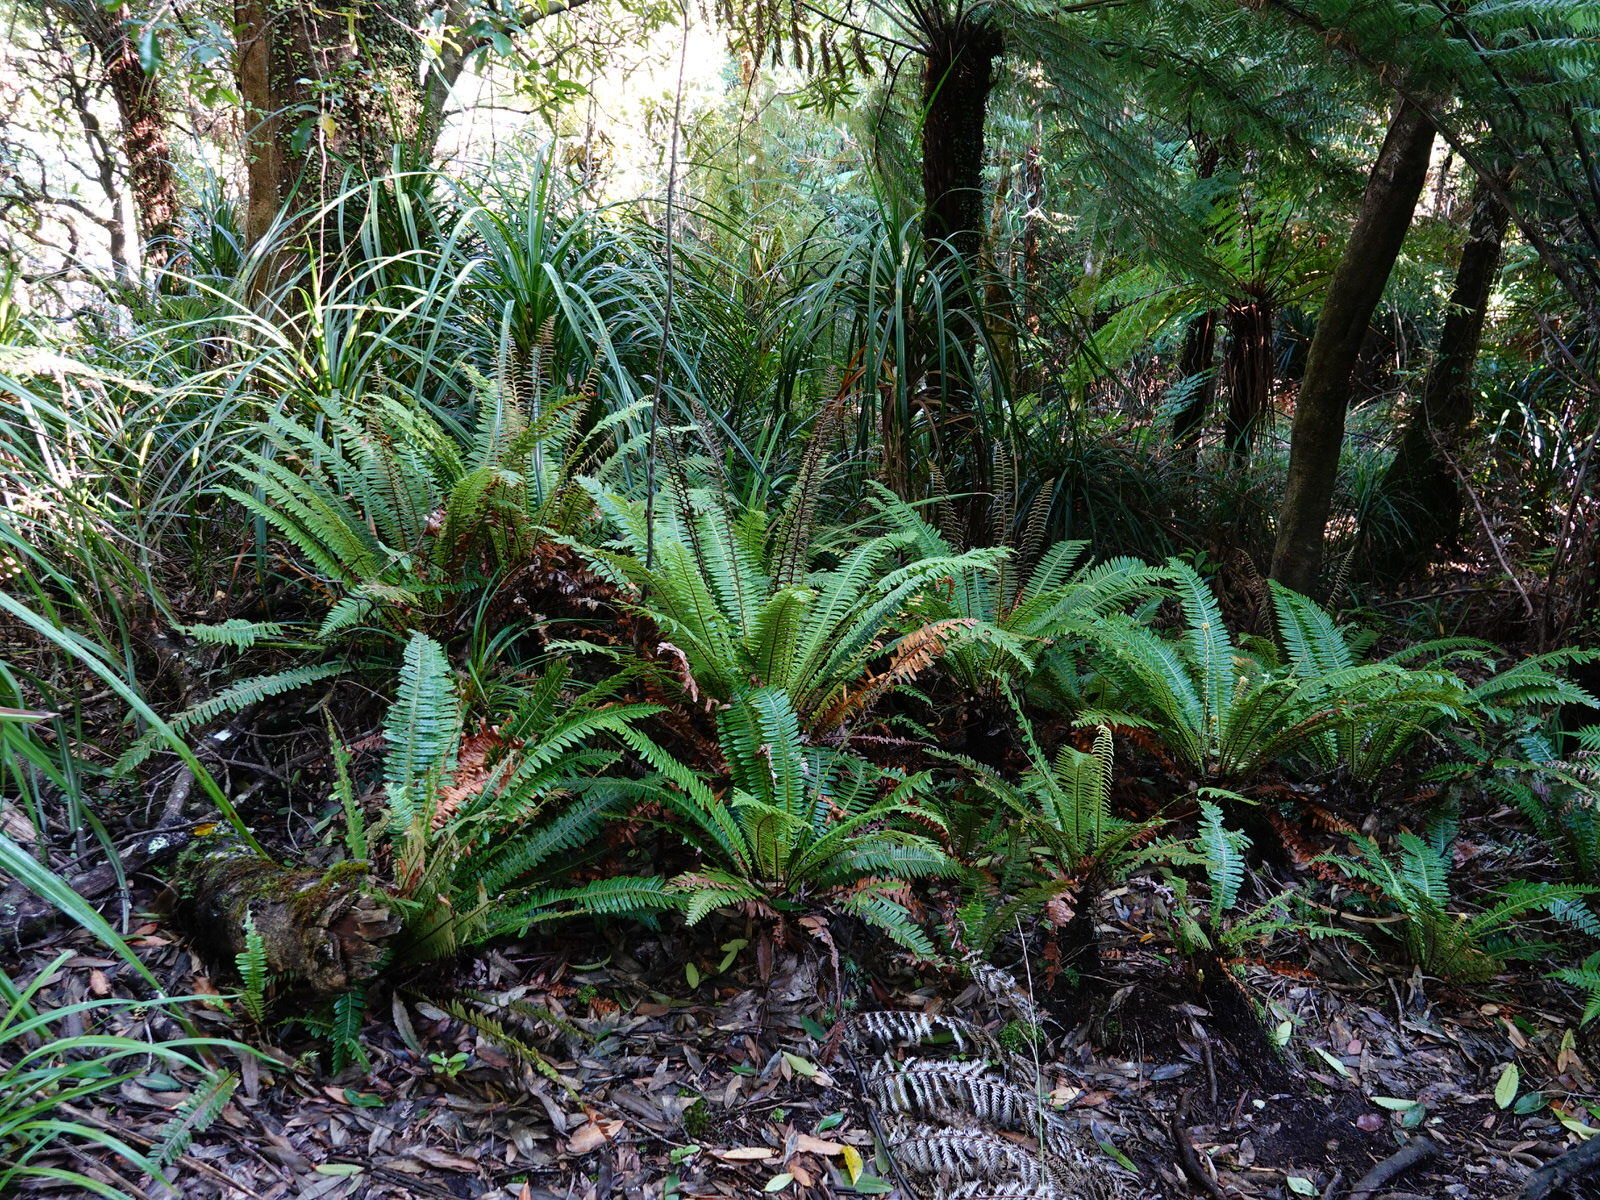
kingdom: Plantae
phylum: Tracheophyta
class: Polypodiopsida
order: Polypodiales
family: Blechnaceae
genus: Lomaria
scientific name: Lomaria discolor
